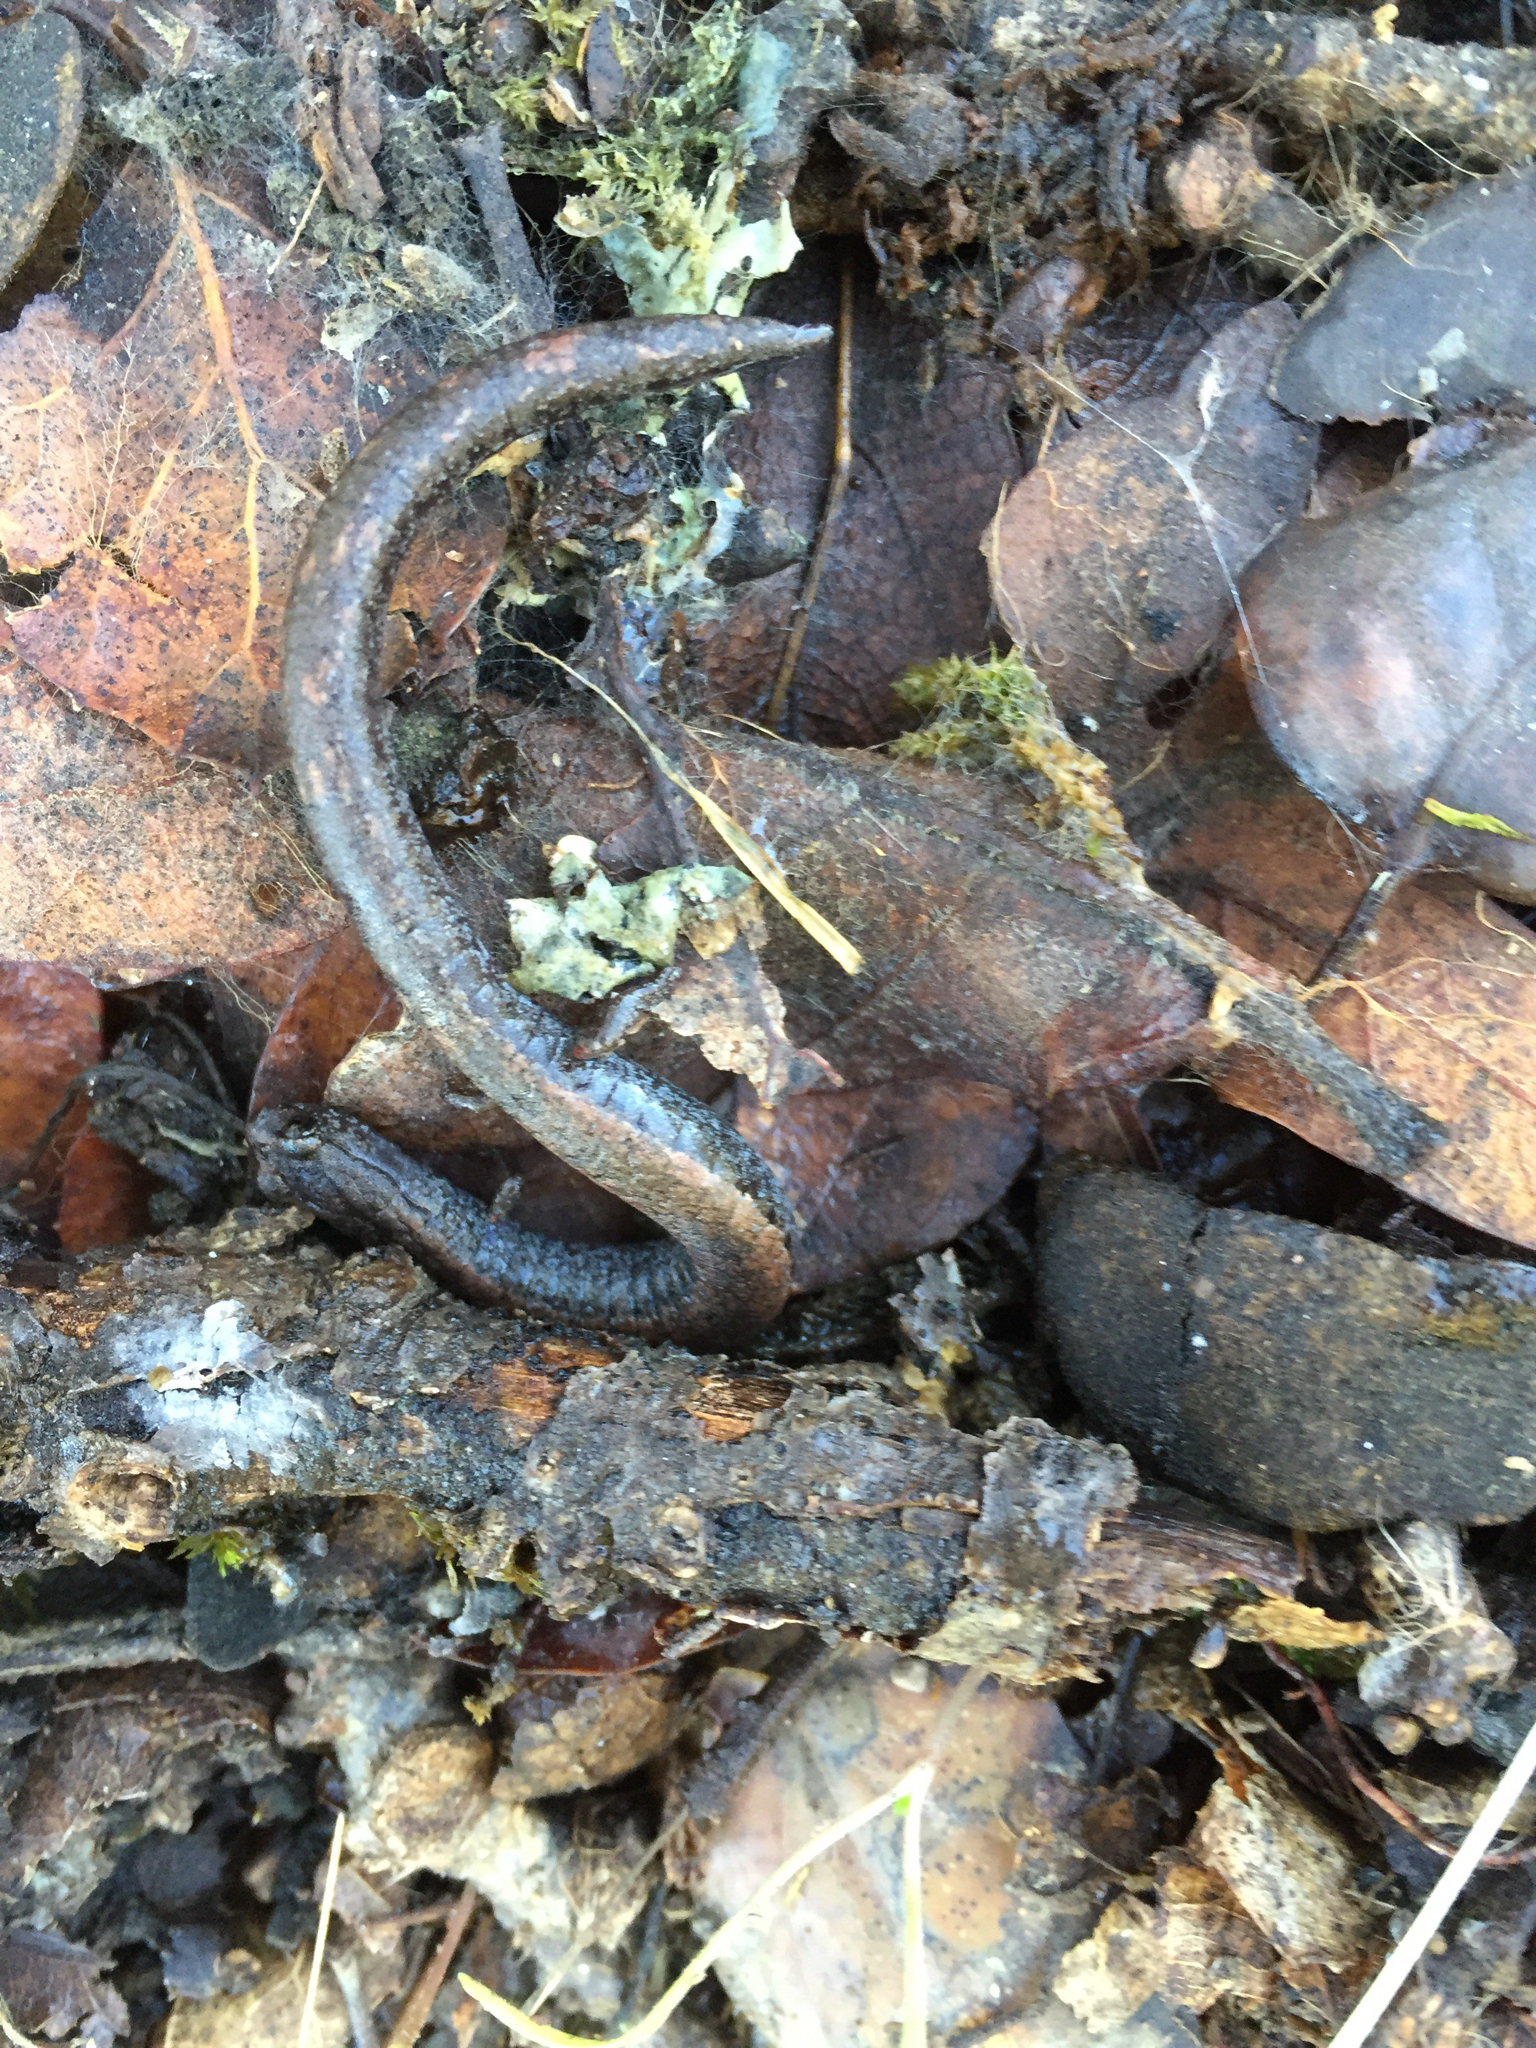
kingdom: Animalia
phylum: Chordata
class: Amphibia
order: Caudata
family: Plethodontidae
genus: Batrachoseps
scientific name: Batrachoseps attenuatus
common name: California slender salamander
